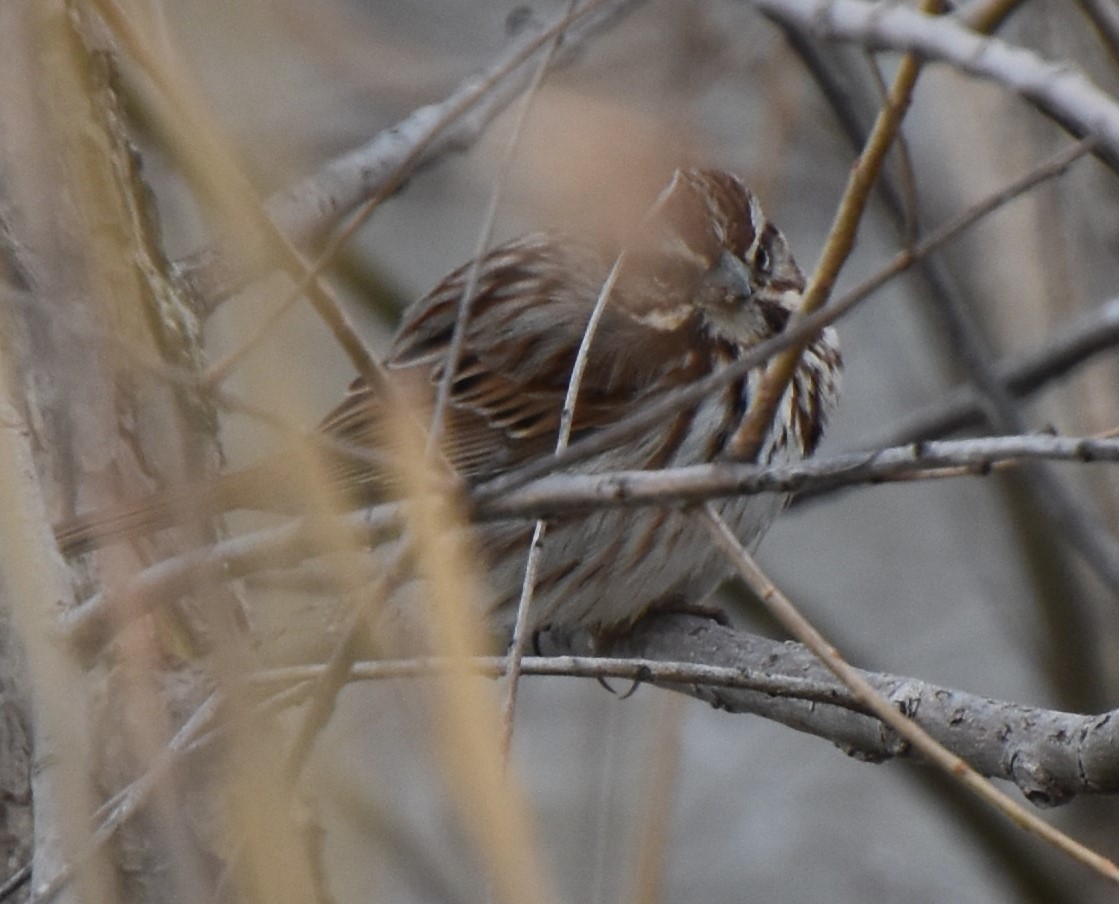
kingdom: Animalia
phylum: Chordata
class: Aves
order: Passeriformes
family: Passerellidae
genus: Melospiza
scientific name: Melospiza melodia
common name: Song sparrow
